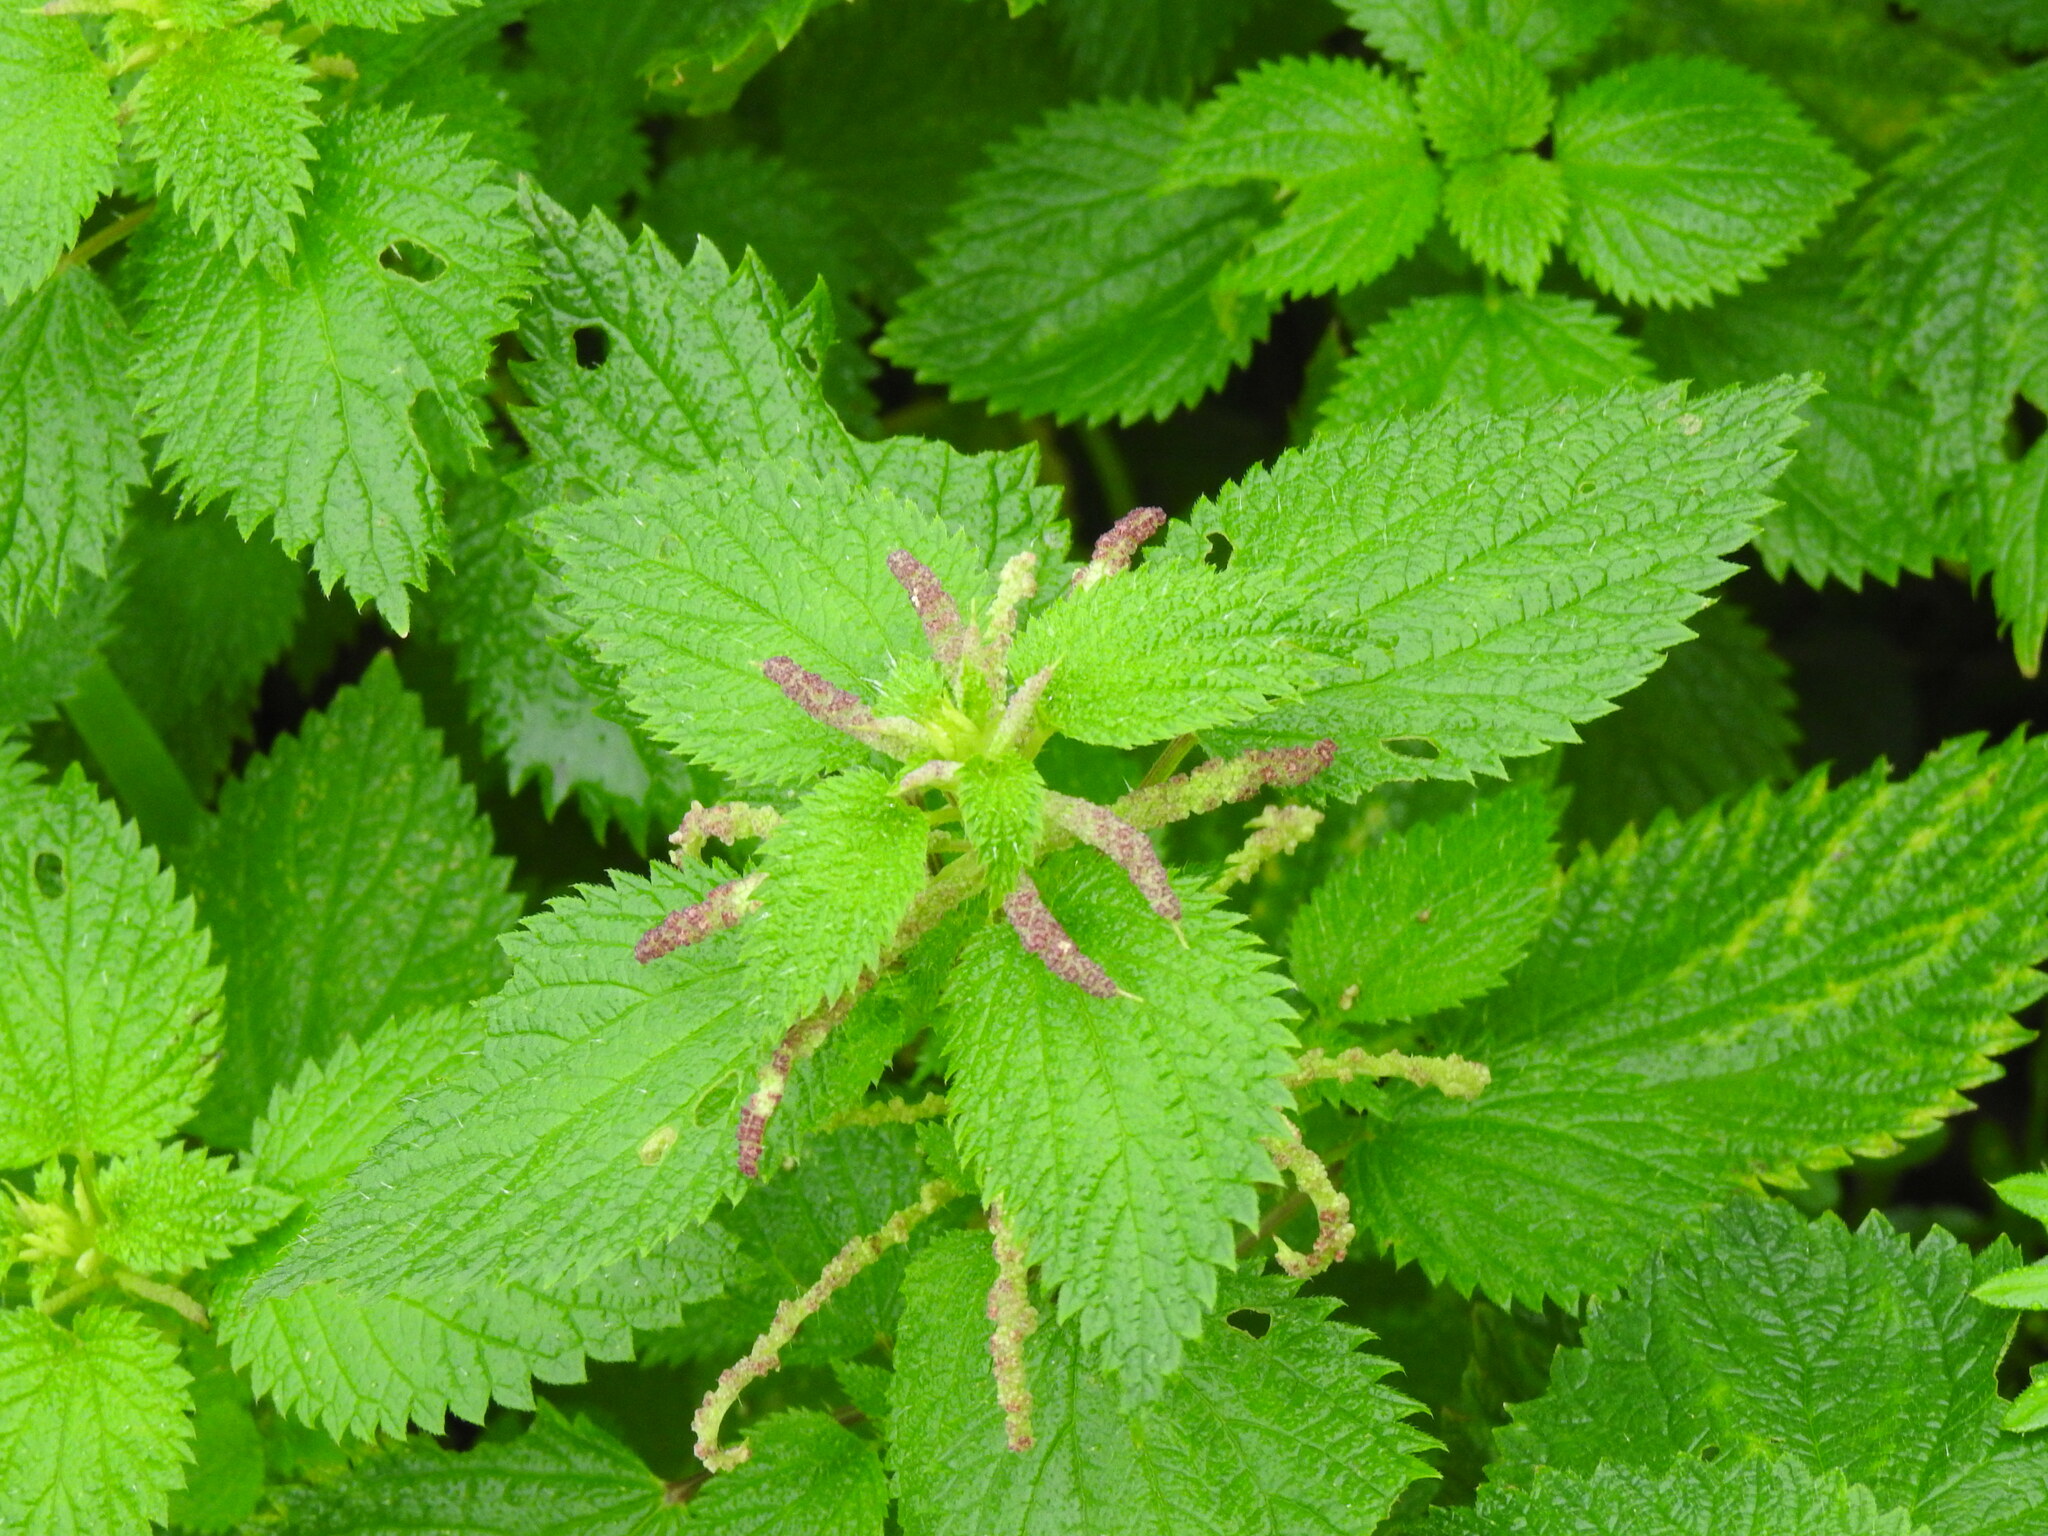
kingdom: Plantae
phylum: Tracheophyta
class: Magnoliopsida
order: Rosales
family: Urticaceae
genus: Urtica
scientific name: Urtica membranacea
